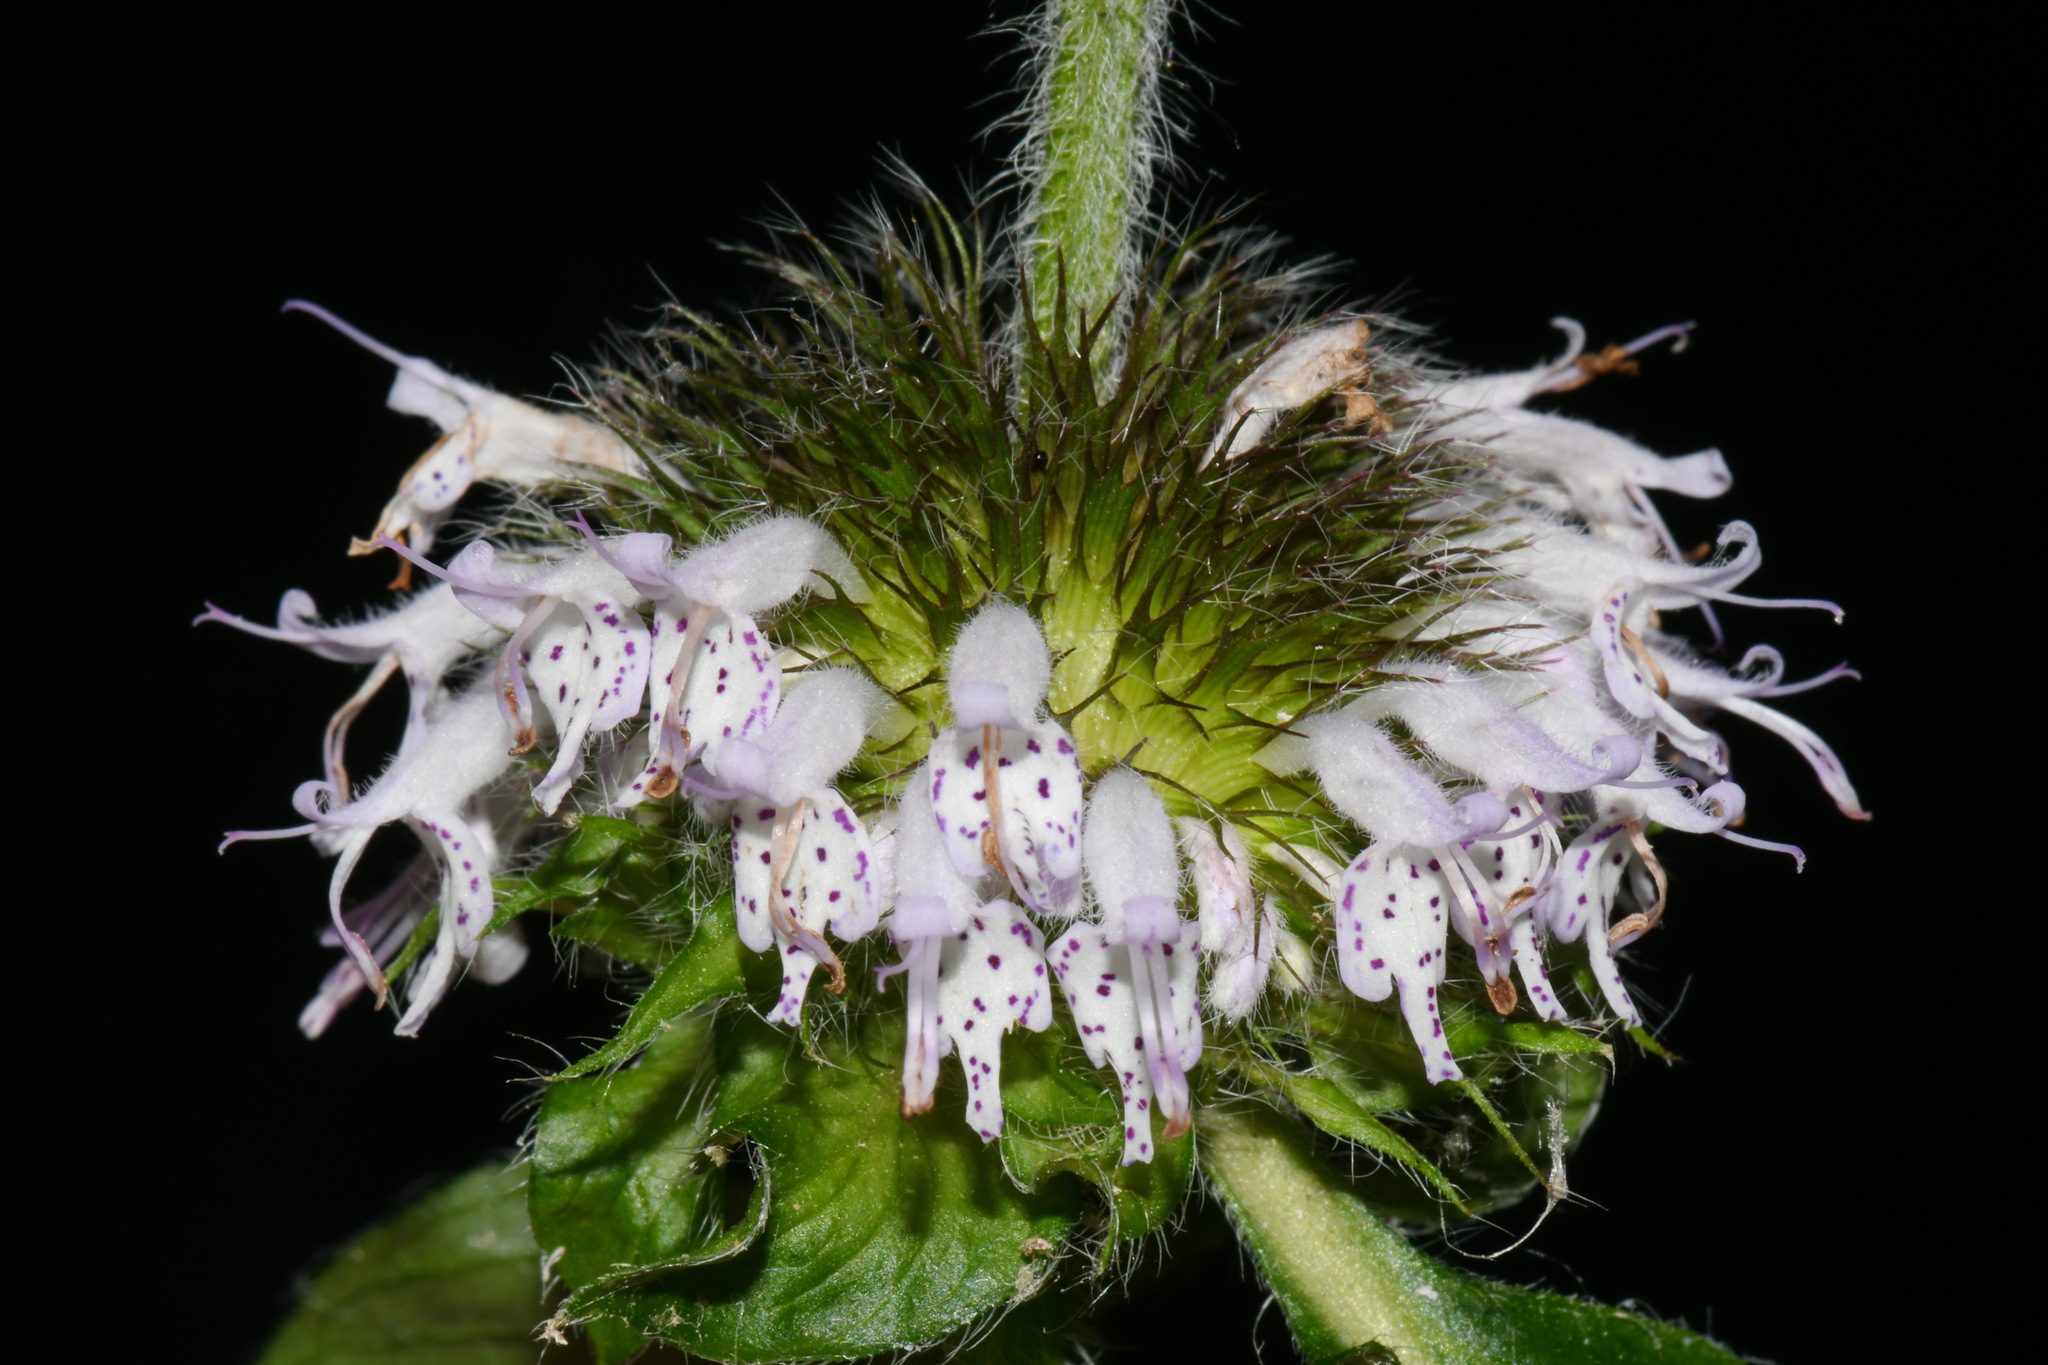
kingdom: Plantae
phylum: Tracheophyta
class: Magnoliopsida
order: Lamiales
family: Lamiaceae
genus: Blephilia
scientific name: Blephilia woffordii
